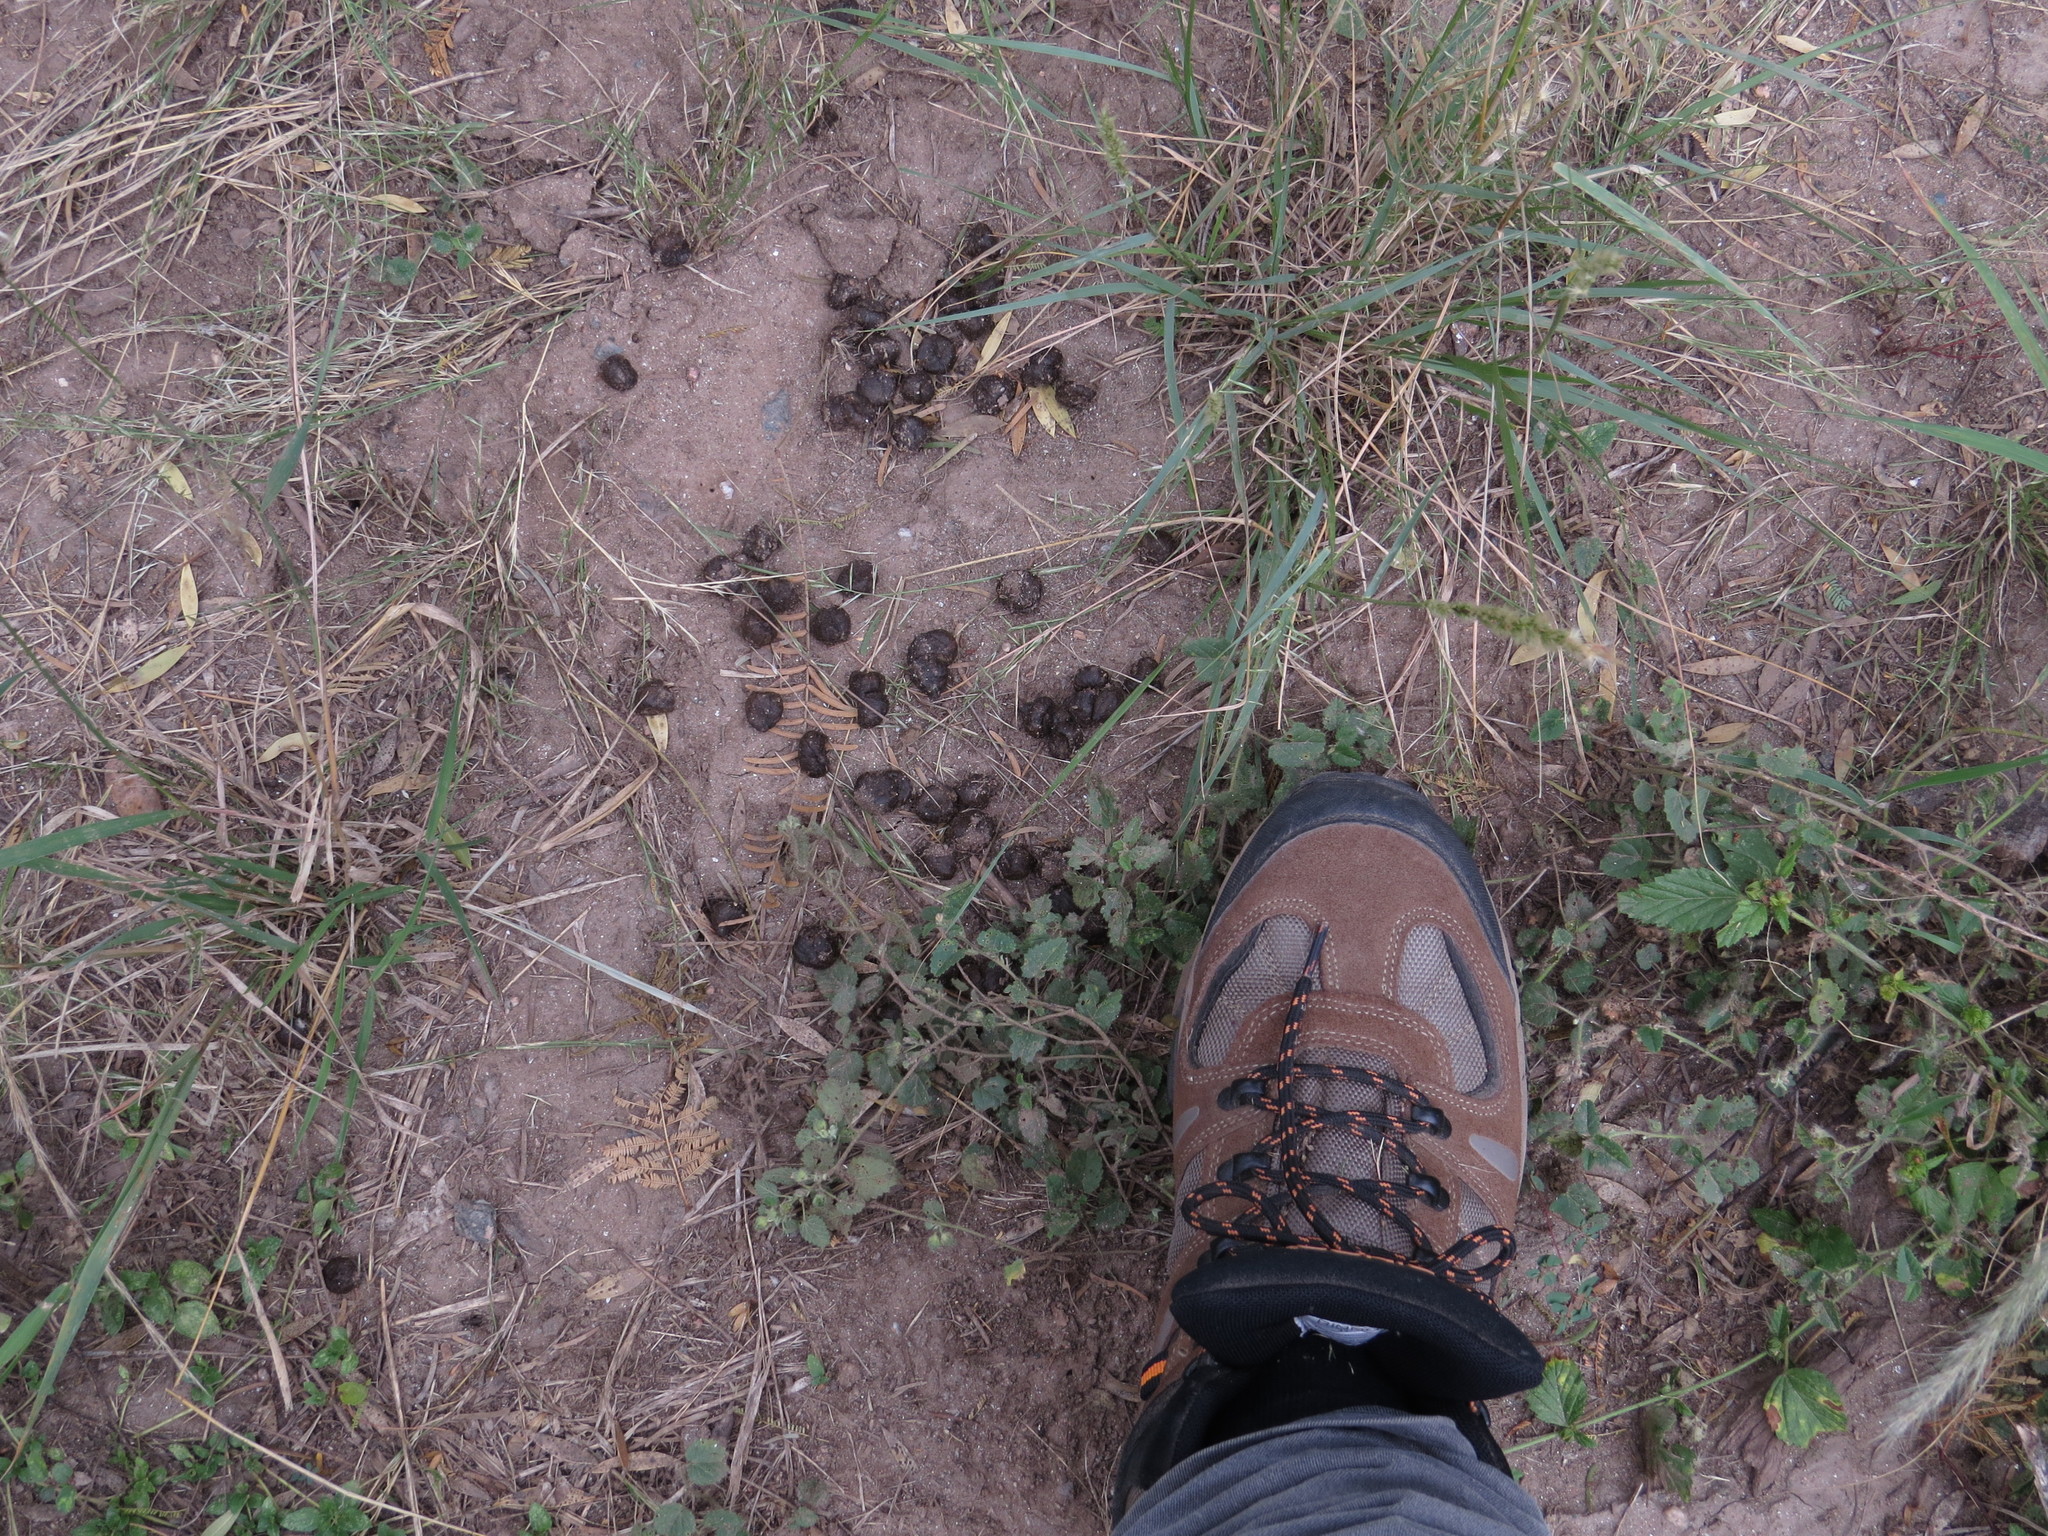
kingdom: Animalia
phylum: Chordata
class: Mammalia
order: Artiodactyla
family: Bovidae
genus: Capra
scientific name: Capra hircus
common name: Domestic goat
